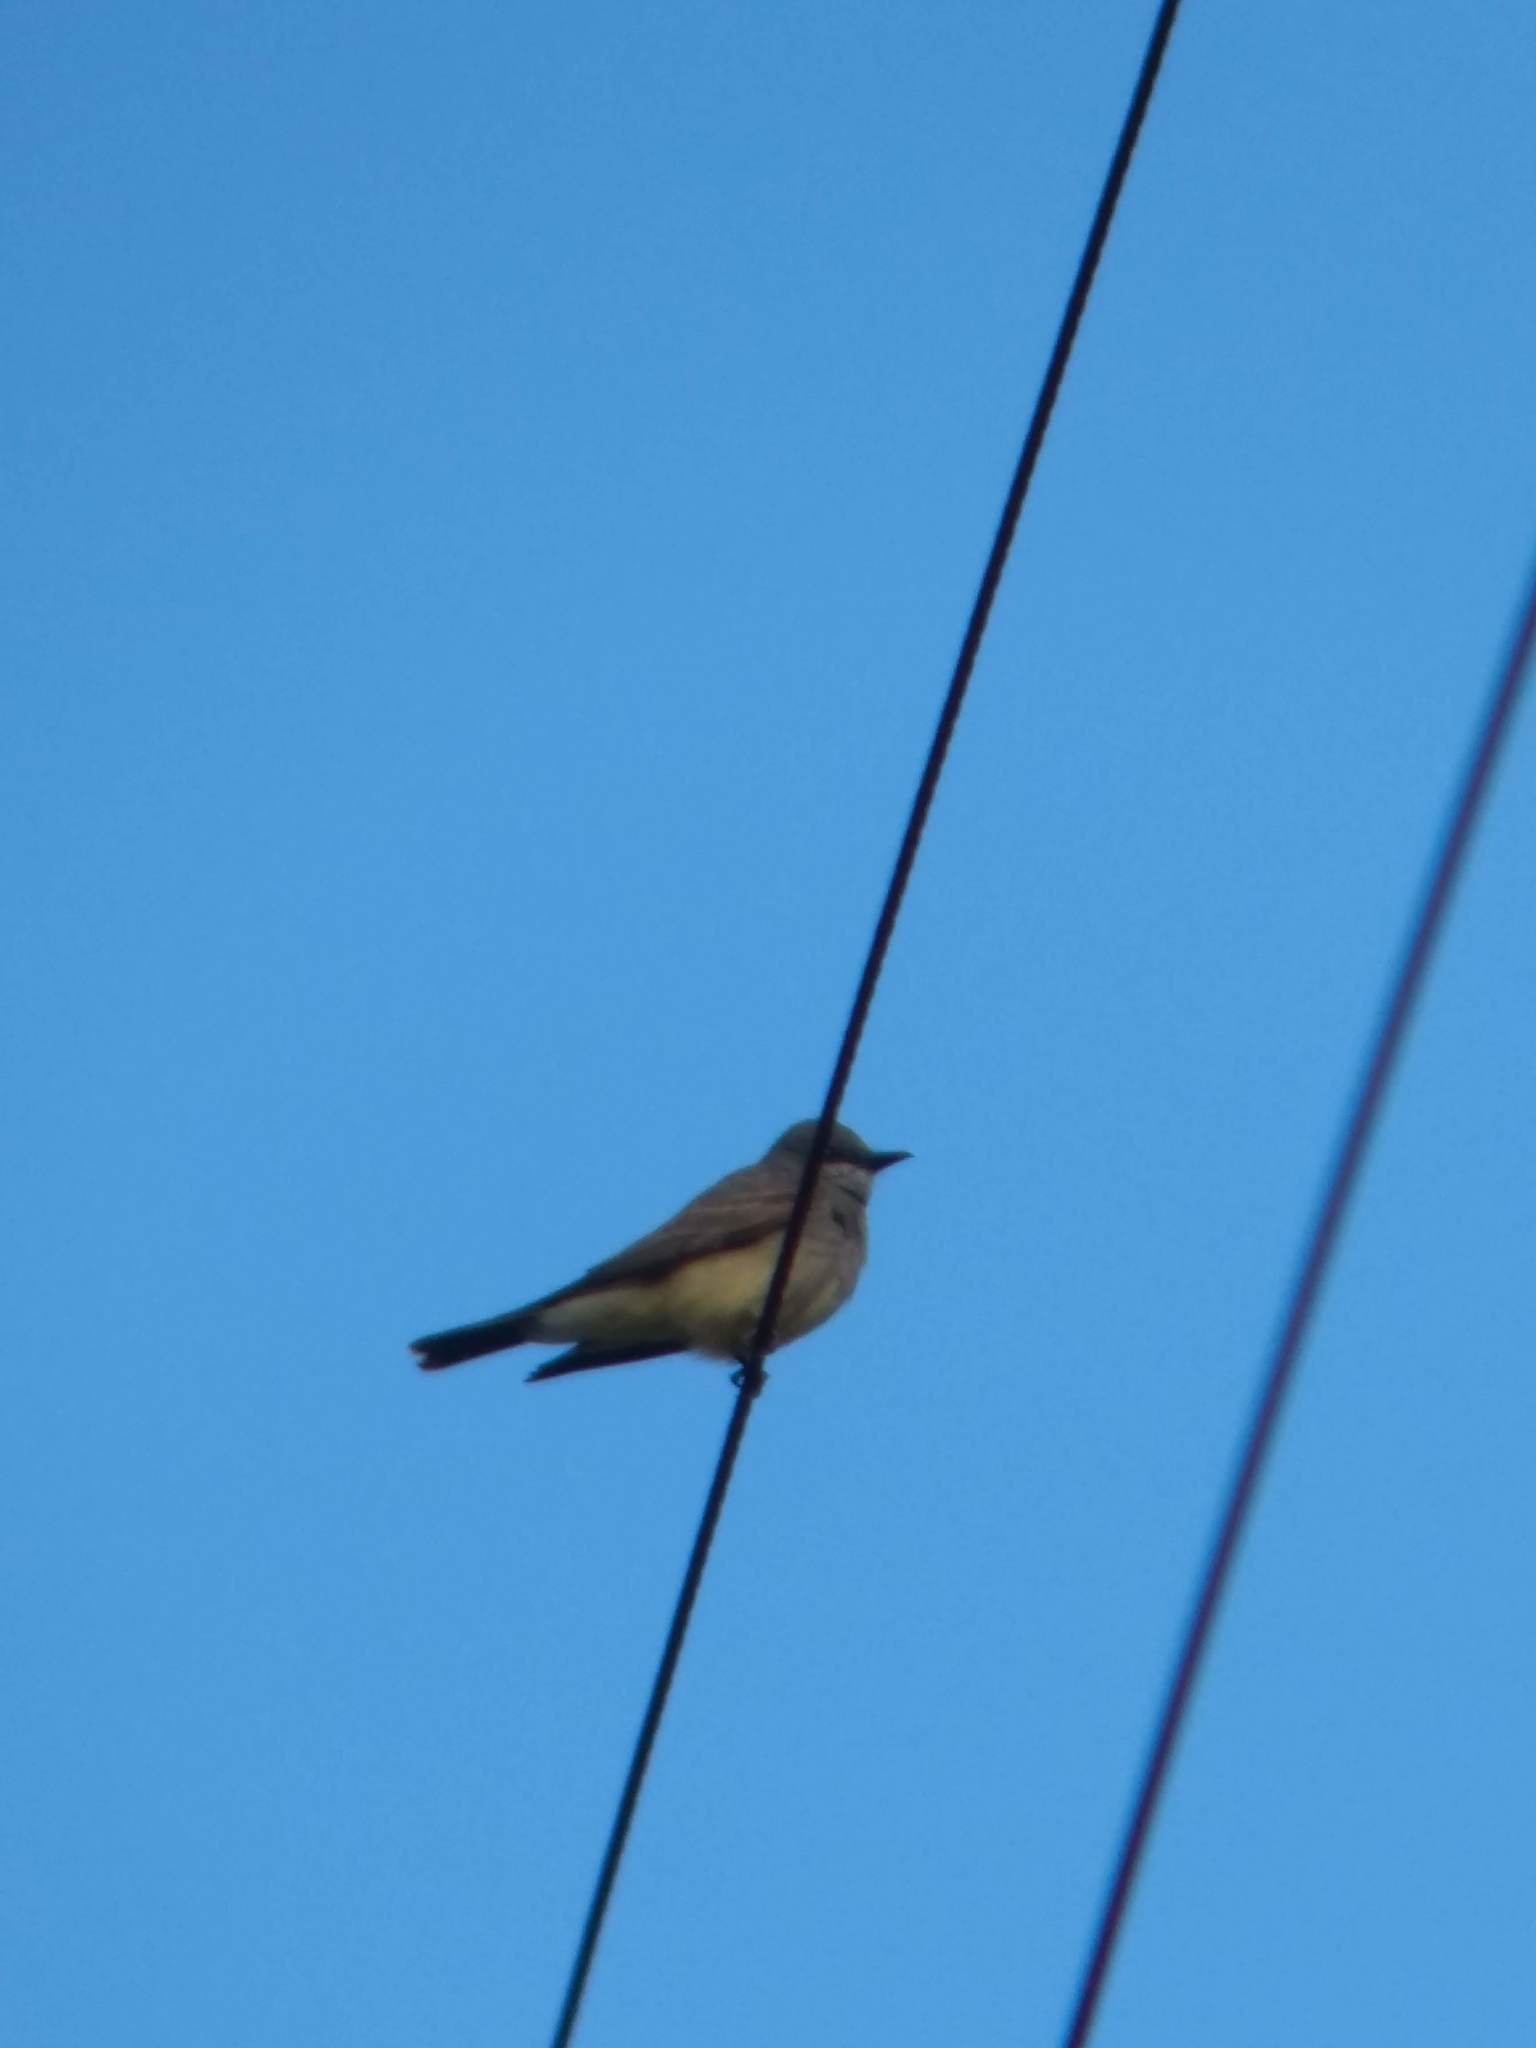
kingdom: Animalia
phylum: Chordata
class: Aves
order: Passeriformes
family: Tyrannidae
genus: Tyrannus
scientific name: Tyrannus vociferans
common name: Cassin's kingbird
